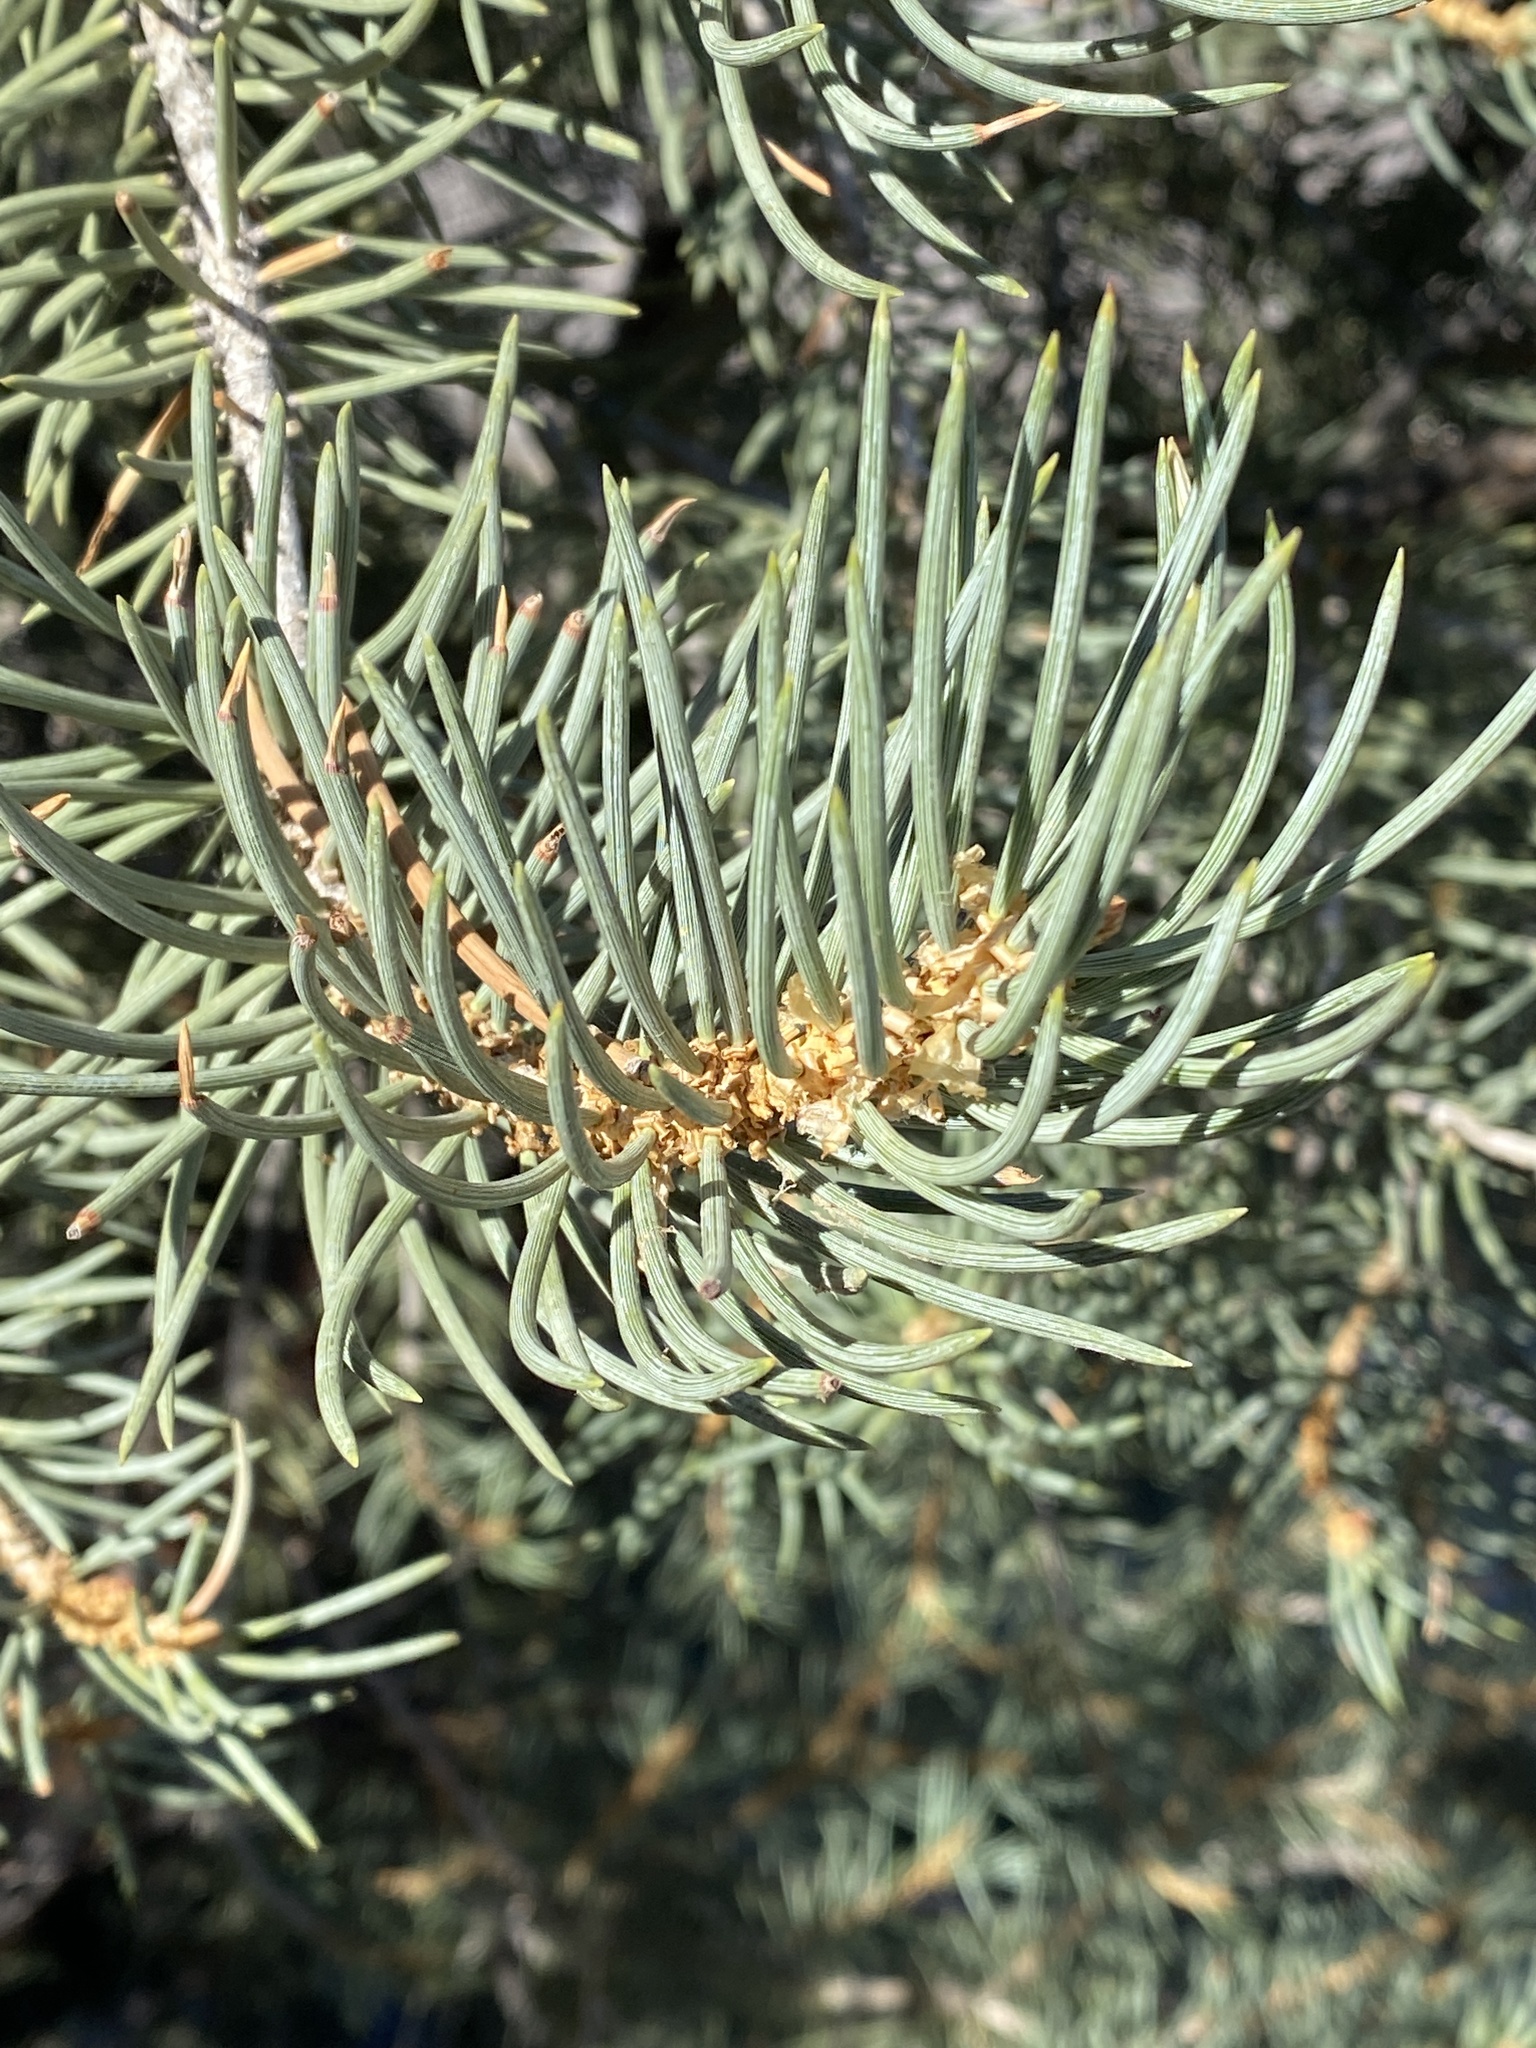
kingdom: Plantae
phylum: Tracheophyta
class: Pinopsida
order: Pinales
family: Pinaceae
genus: Pinus
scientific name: Pinus monophylla
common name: One-leaved nut pine
